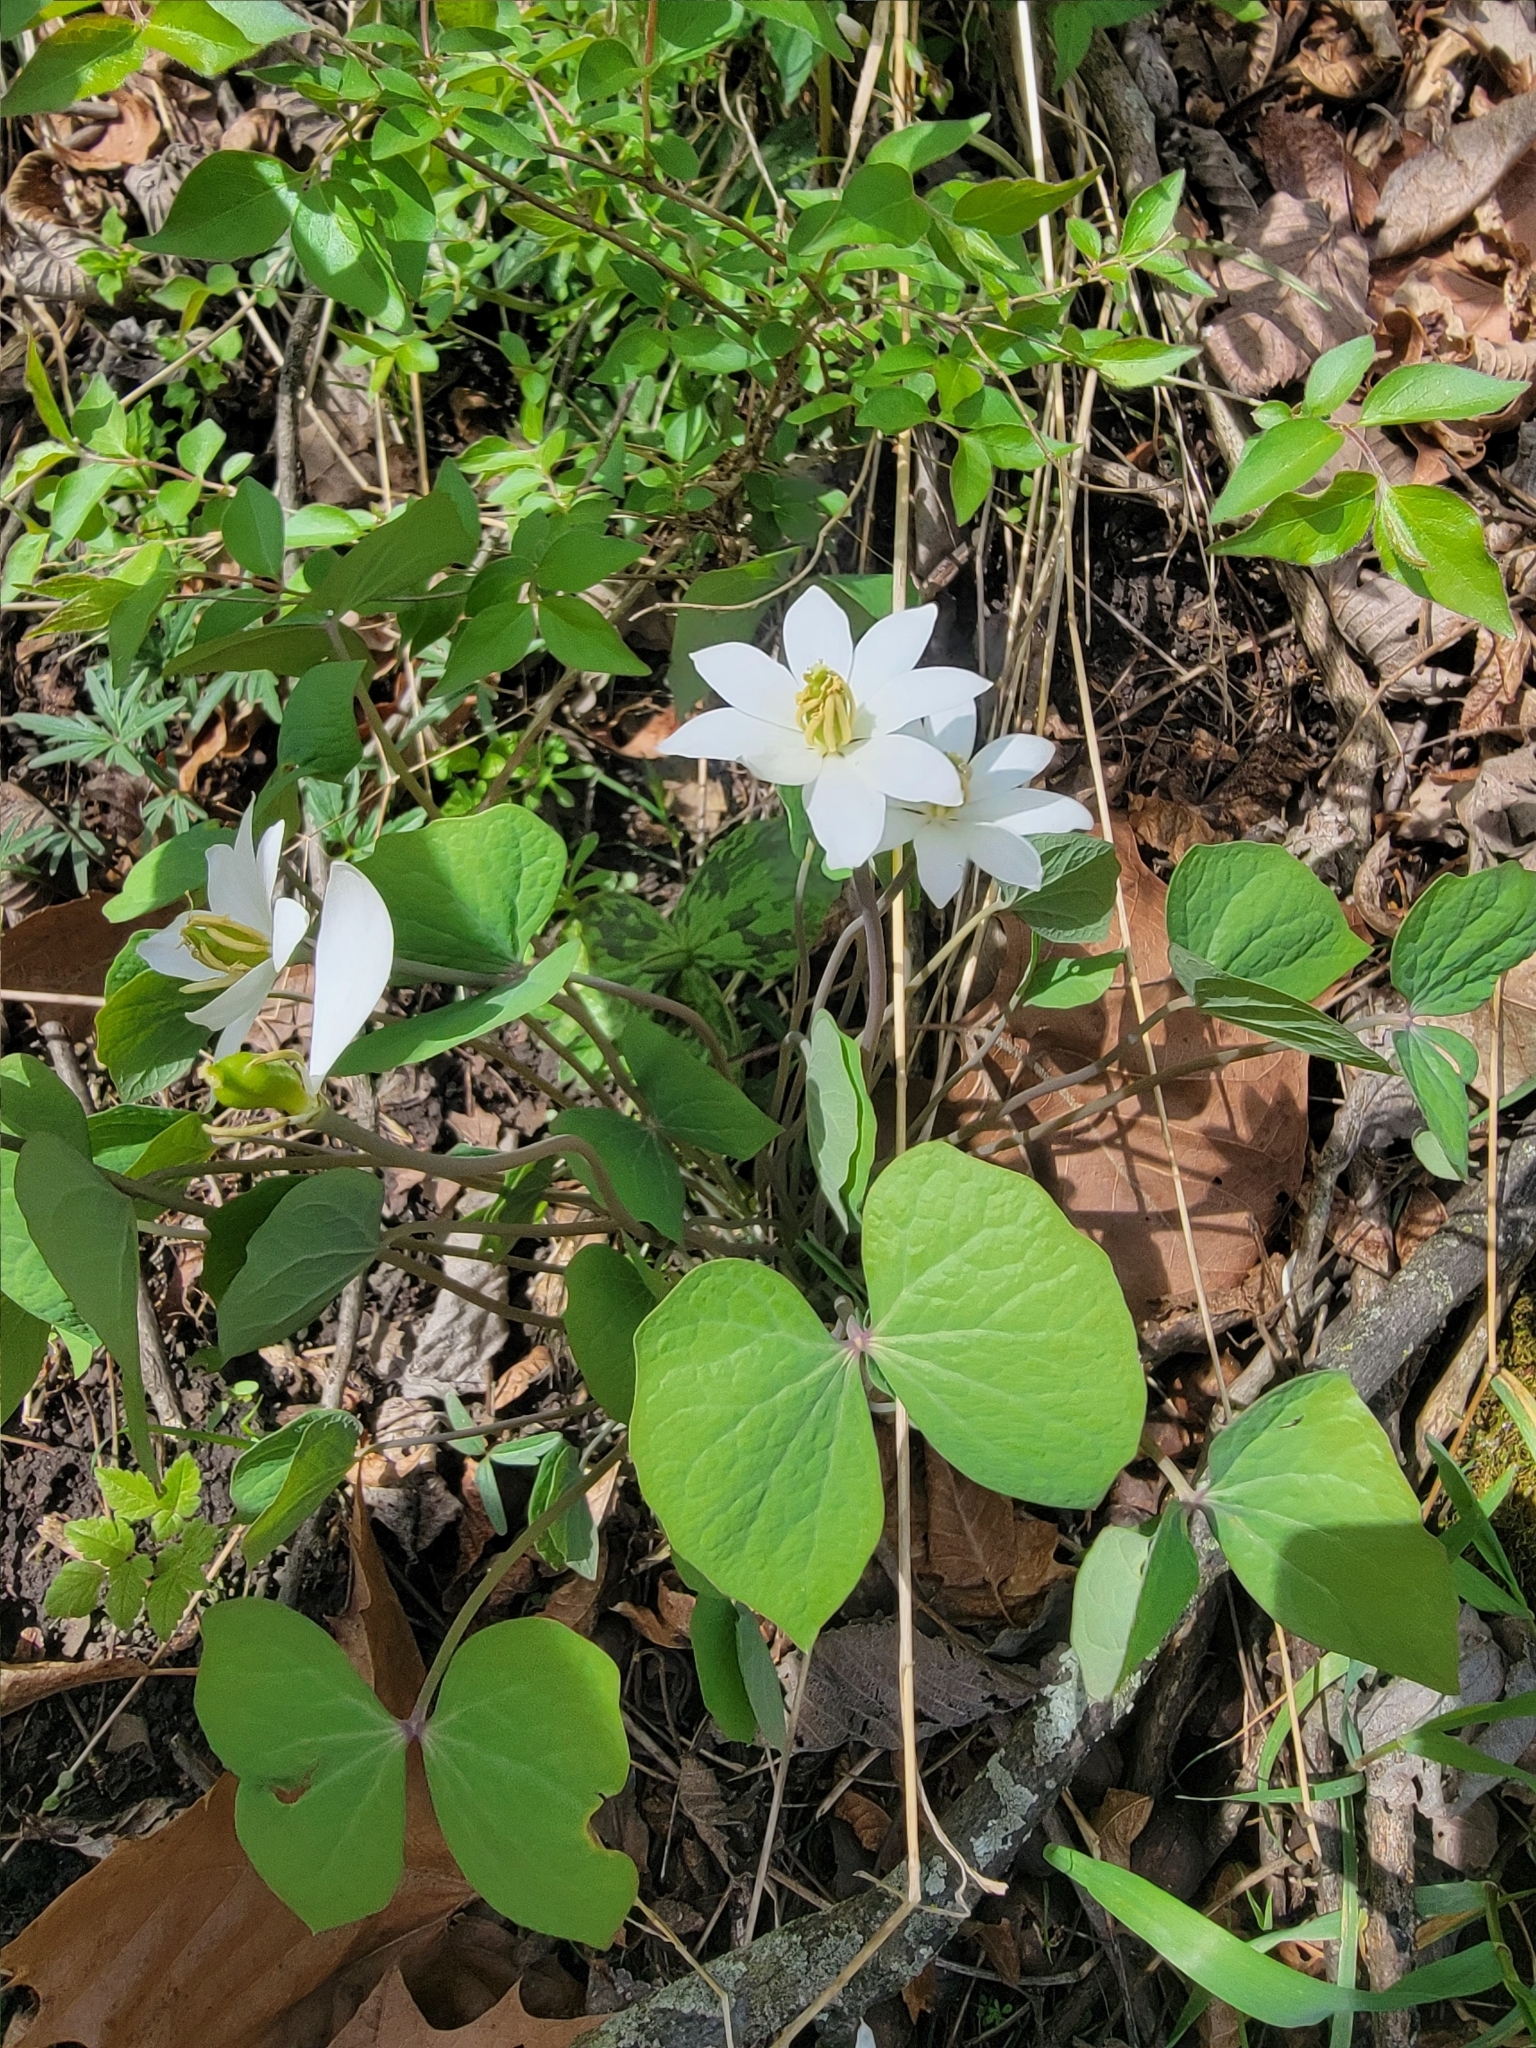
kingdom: Plantae
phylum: Tracheophyta
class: Magnoliopsida
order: Ranunculales
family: Berberidaceae
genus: Jeffersonia
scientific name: Jeffersonia diphylla
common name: Rheumatism-root
